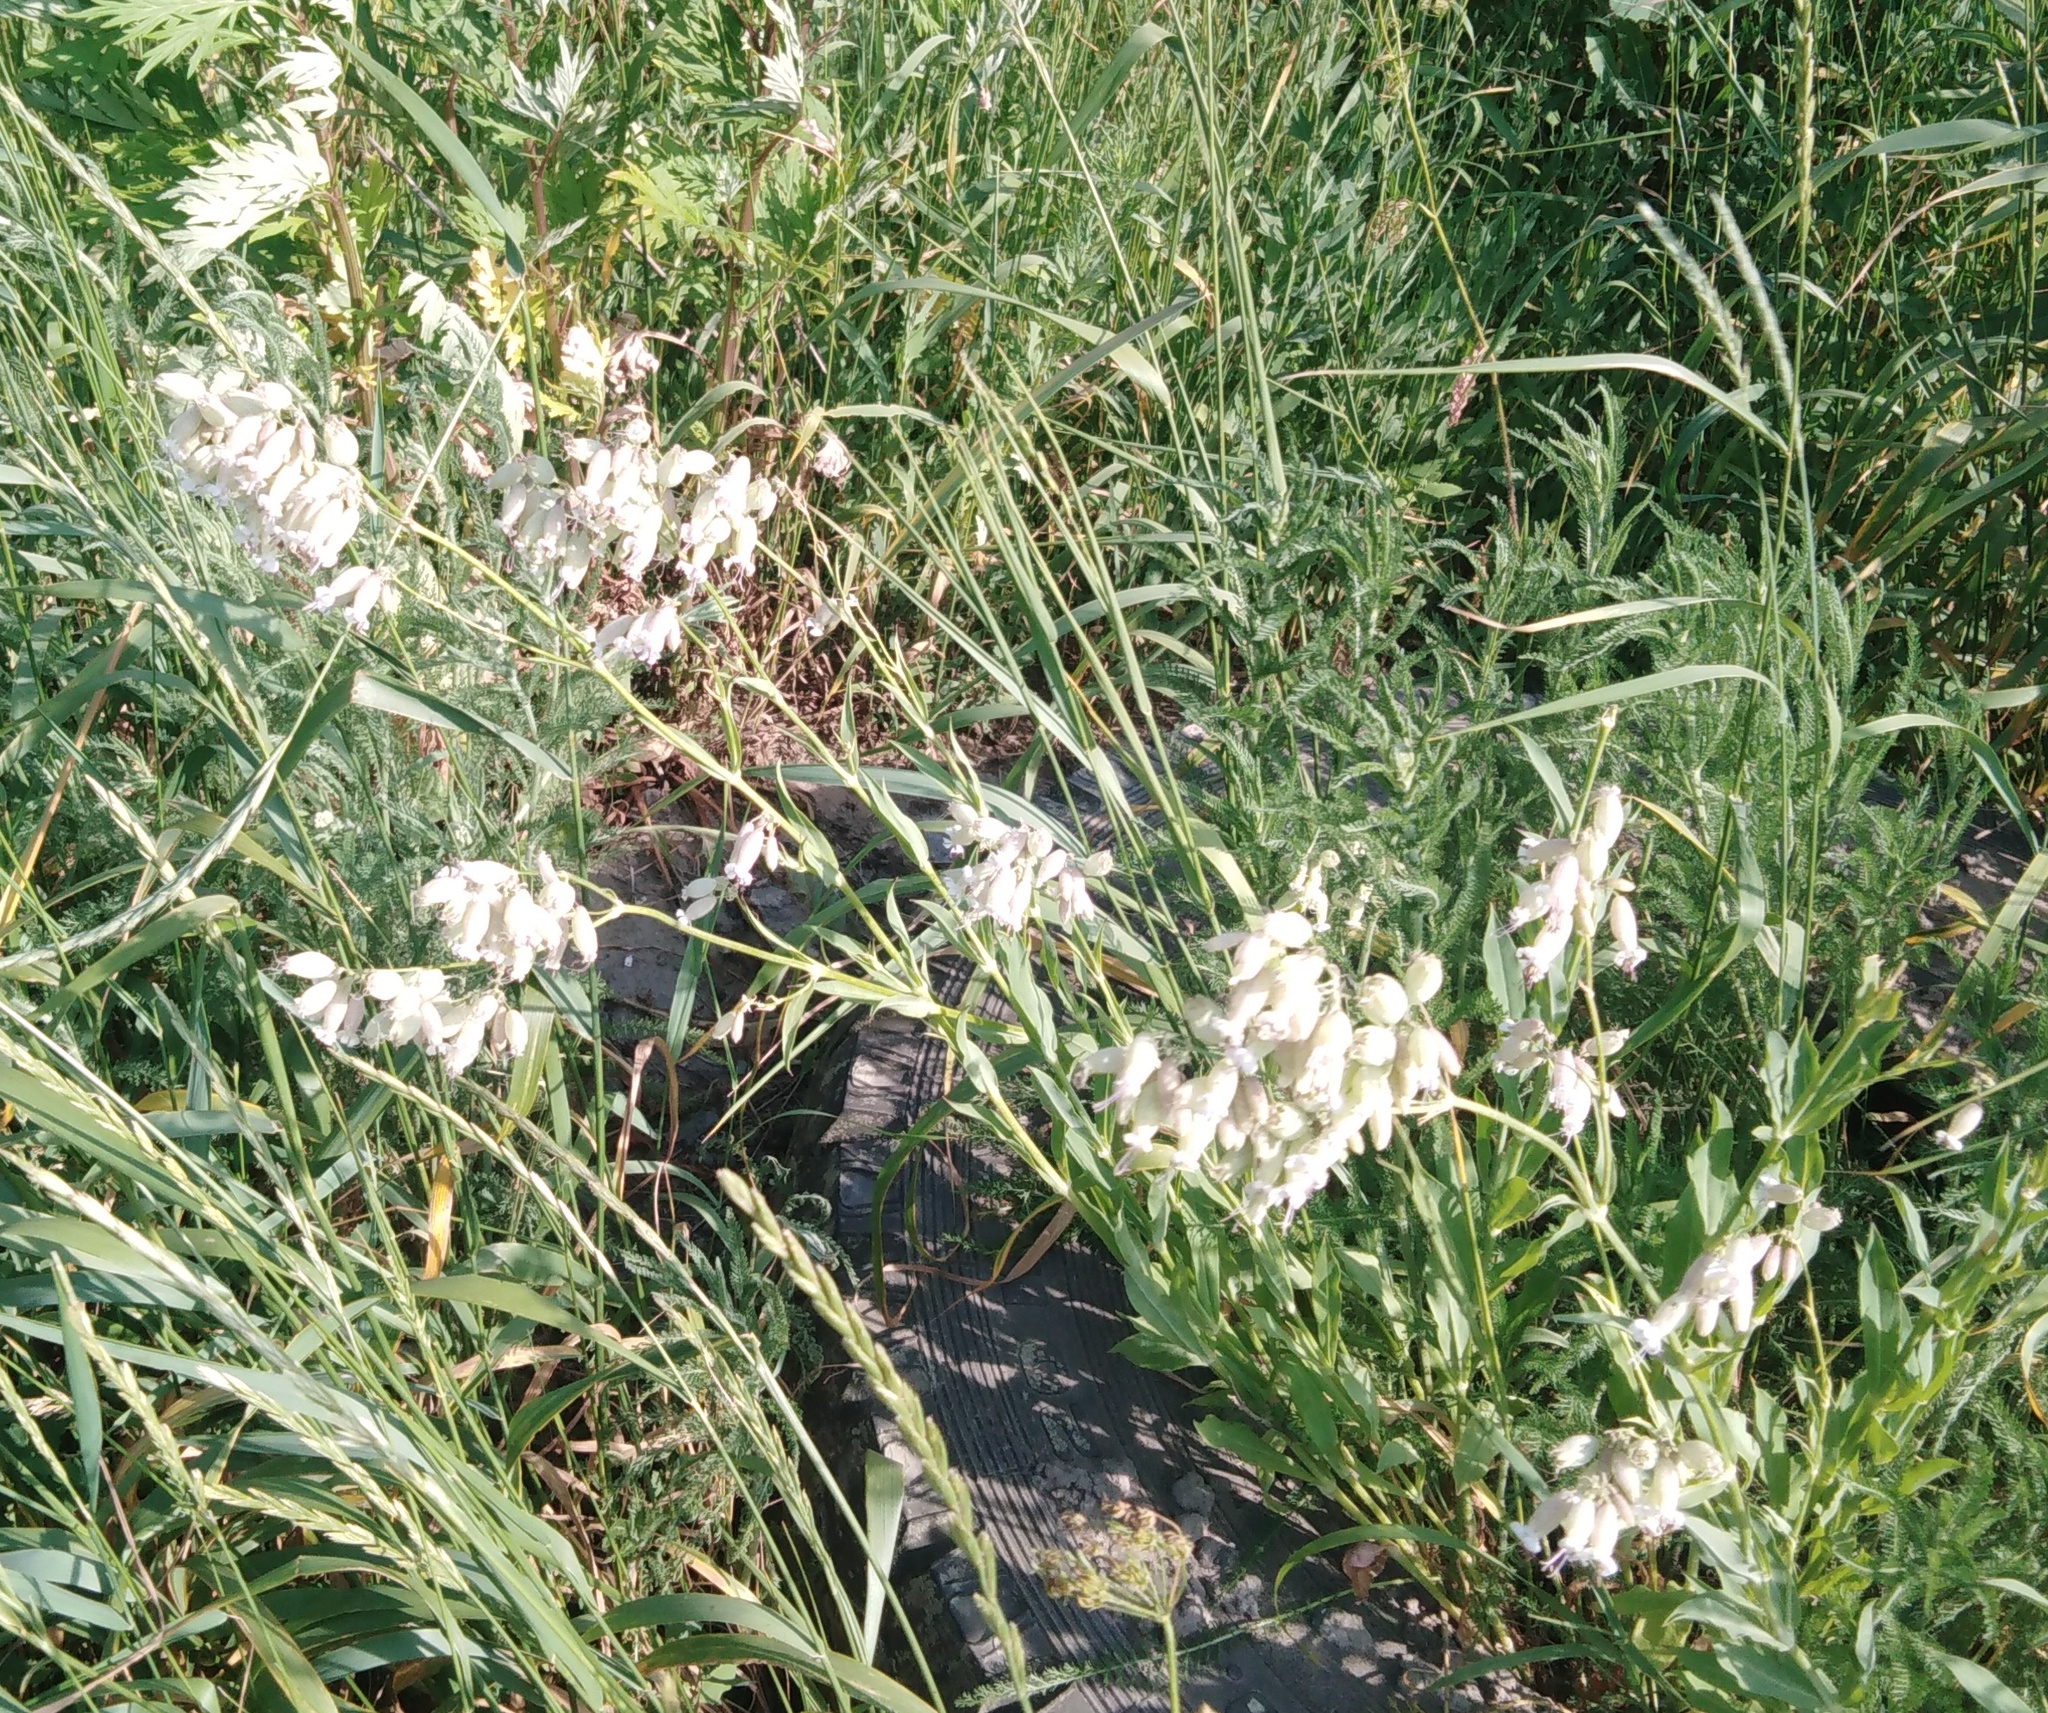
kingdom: Plantae
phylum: Tracheophyta
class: Magnoliopsida
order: Caryophyllales
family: Caryophyllaceae
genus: Silene
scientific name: Silene vulgaris
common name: Bladder campion
